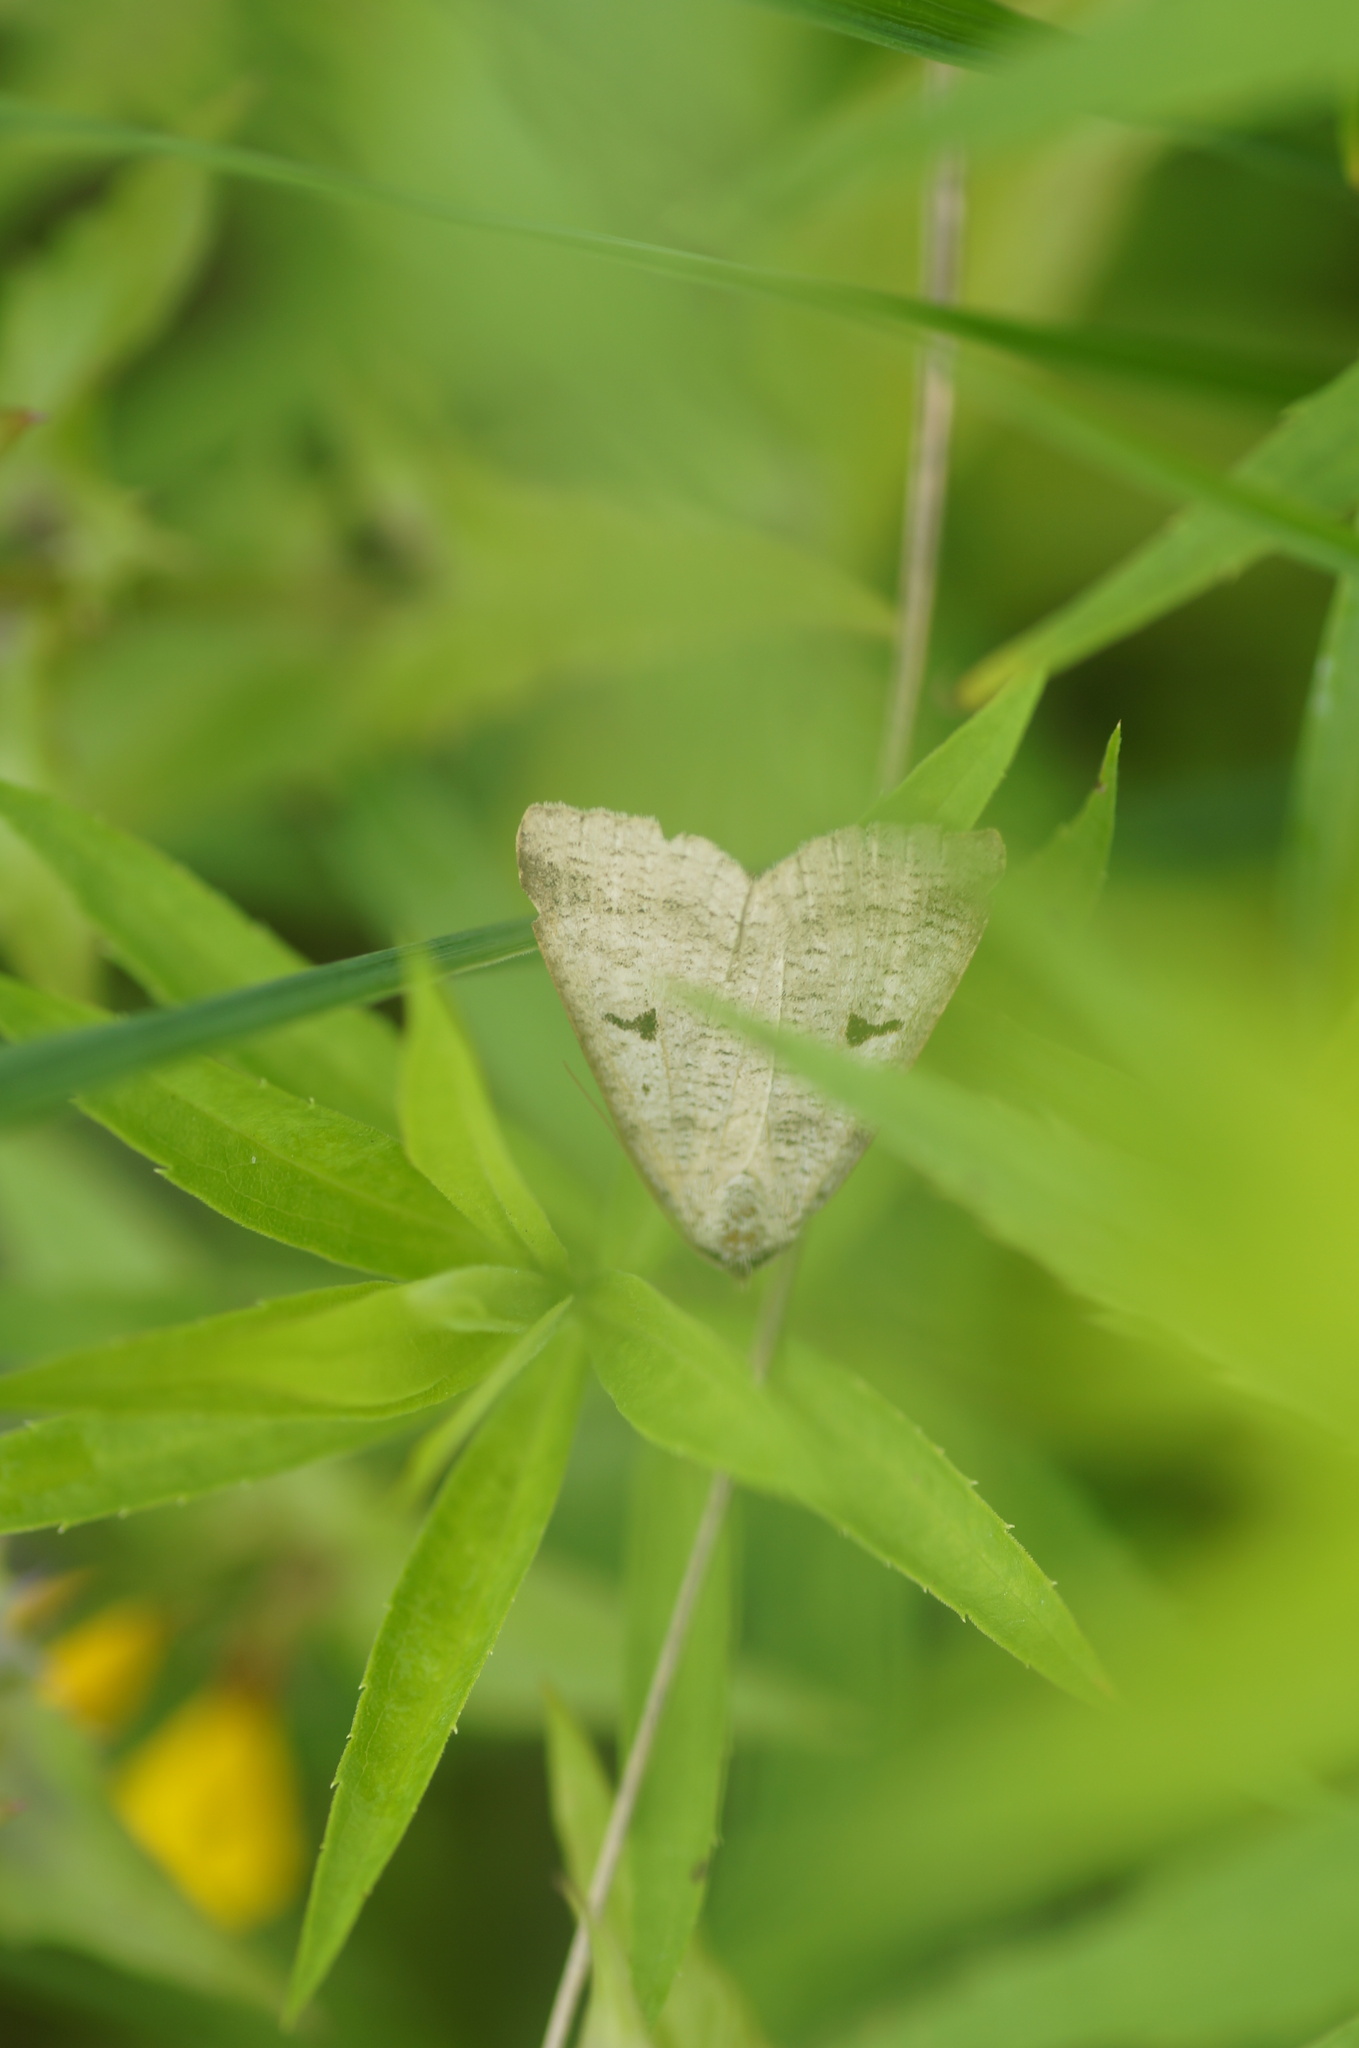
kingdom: Animalia
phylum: Arthropoda
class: Insecta
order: Lepidoptera
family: Erebidae
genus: Lygephila
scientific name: Lygephila pastinum
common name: Blackneck
